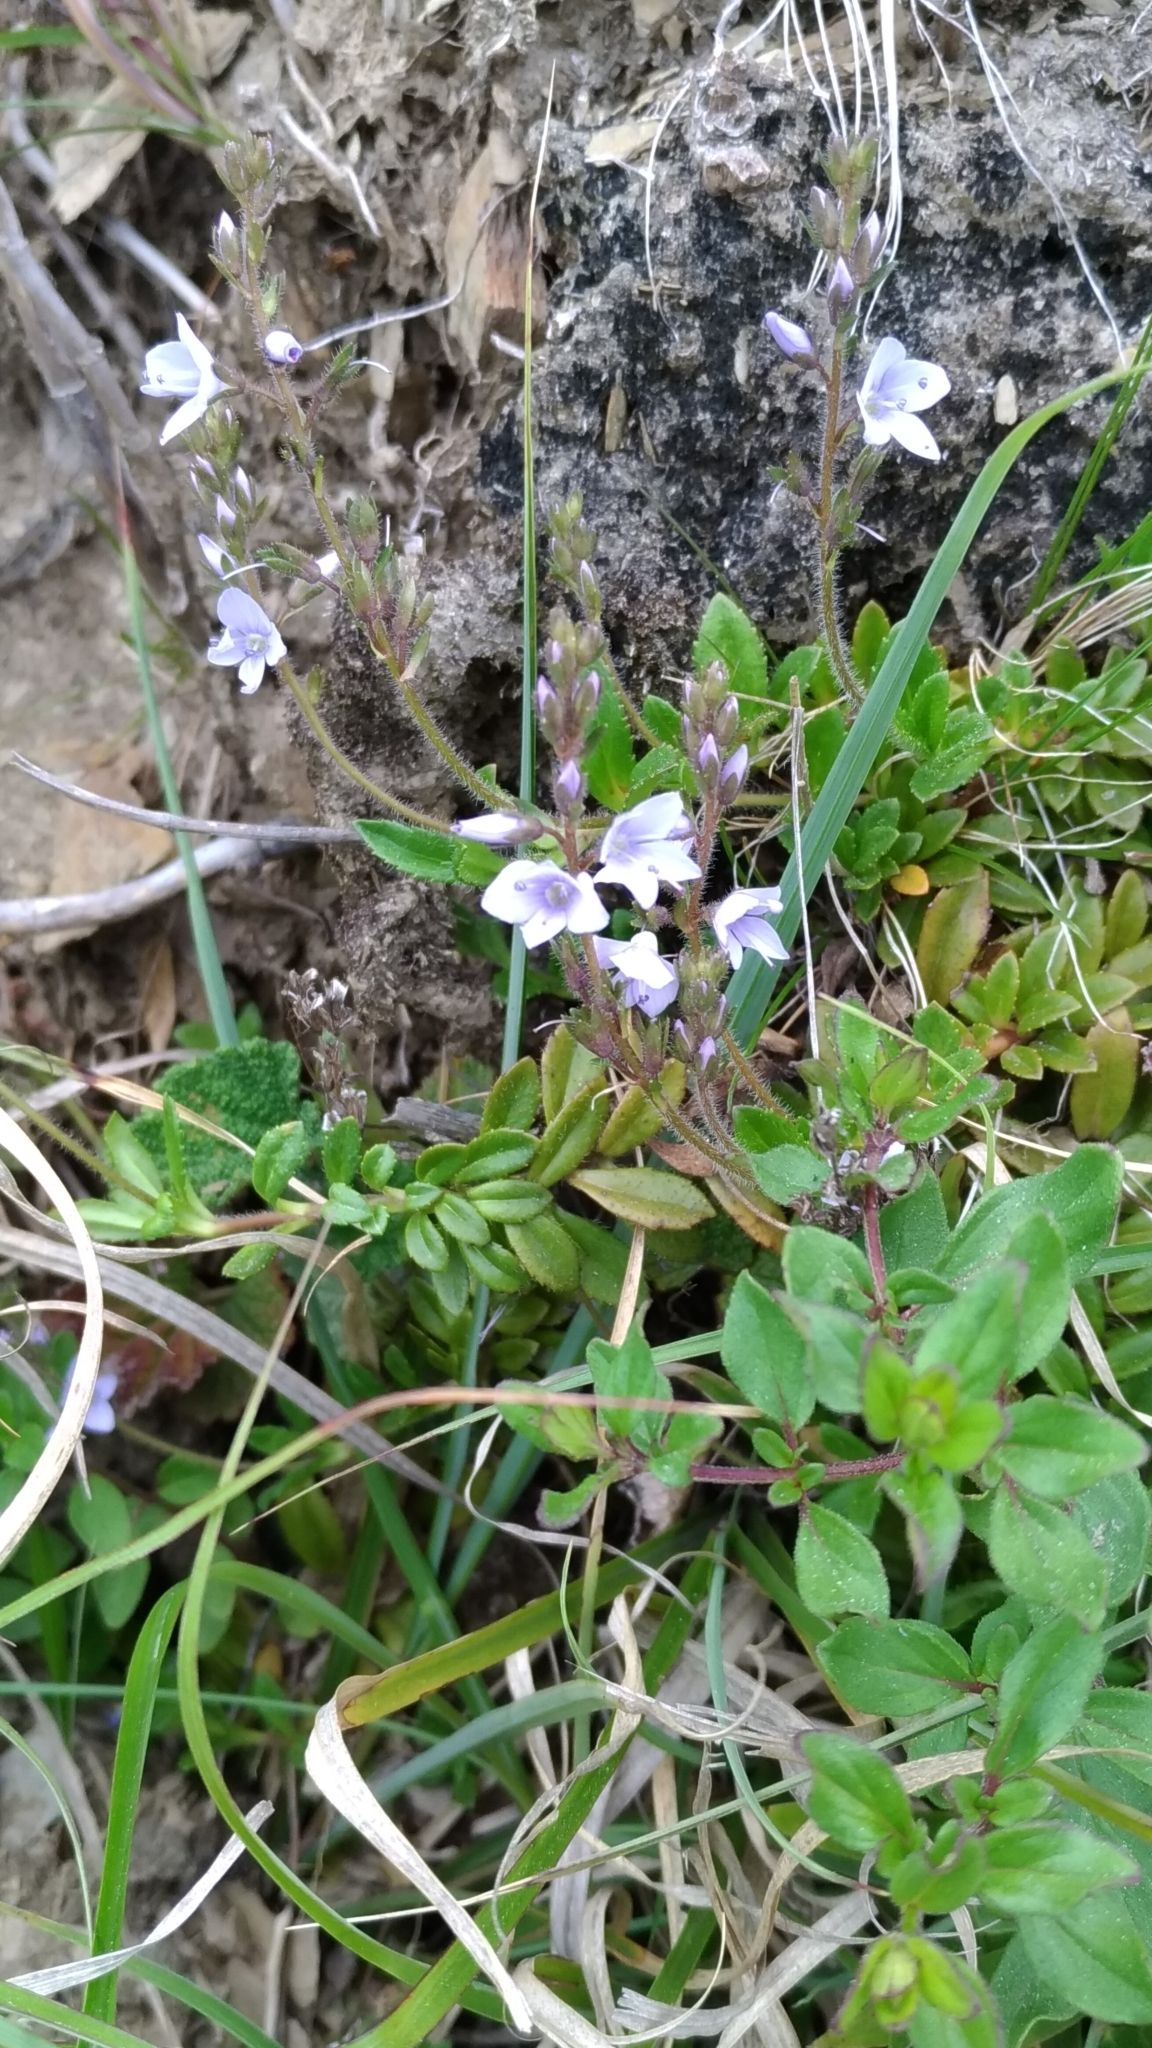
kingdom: Plantae
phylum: Tracheophyta
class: Magnoliopsida
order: Lamiales
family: Plantaginaceae
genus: Veronica
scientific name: Veronica morrisonicola
